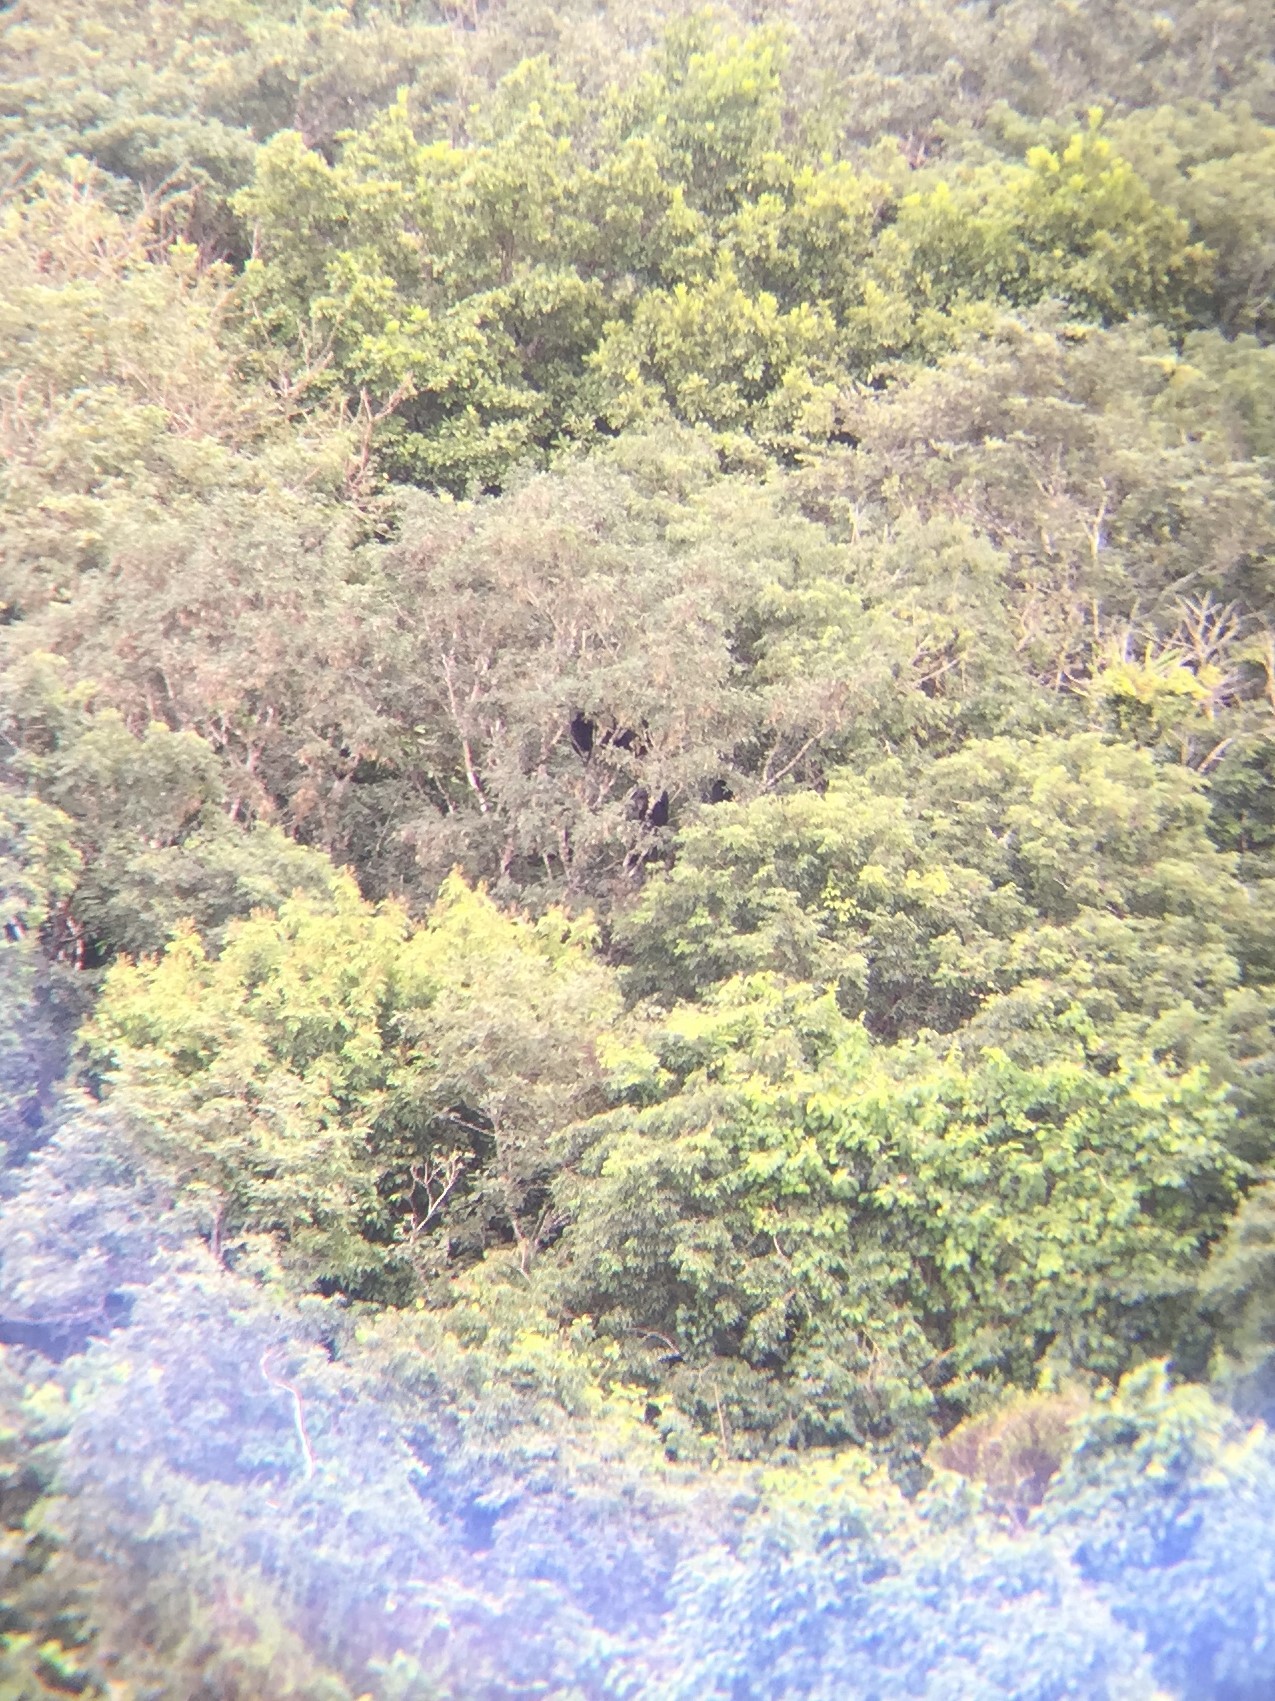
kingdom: Animalia
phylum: Chordata
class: Mammalia
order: Primates
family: Atelidae
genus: Alouatta
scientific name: Alouatta pigra
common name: Guatemalan black howler
